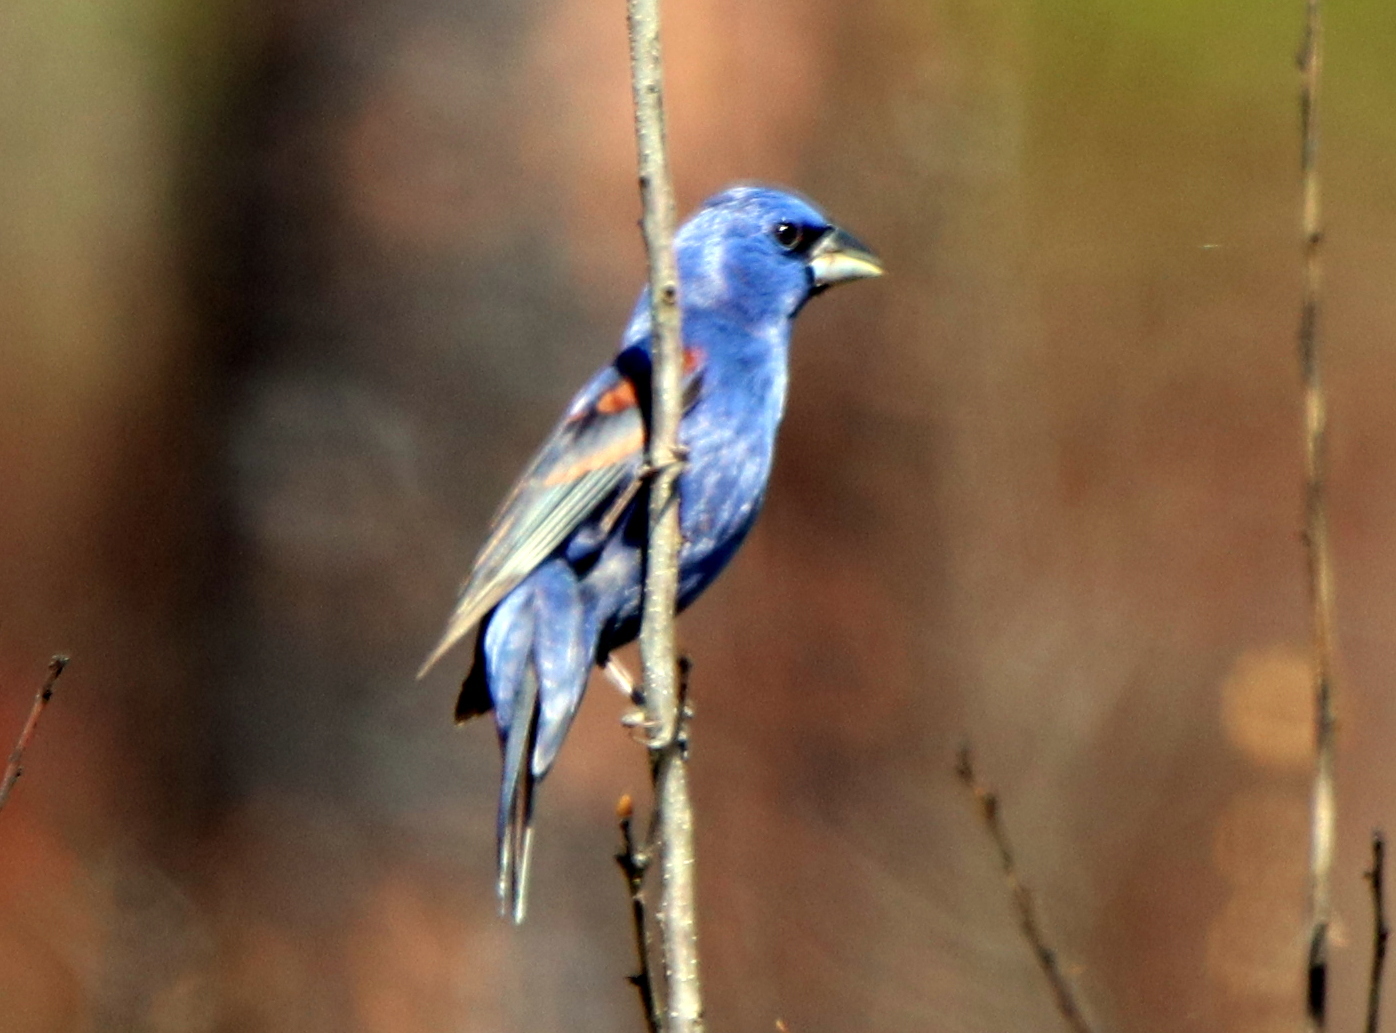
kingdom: Animalia
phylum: Chordata
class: Aves
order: Passeriformes
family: Cardinalidae
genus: Passerina
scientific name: Passerina caerulea
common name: Blue grosbeak
